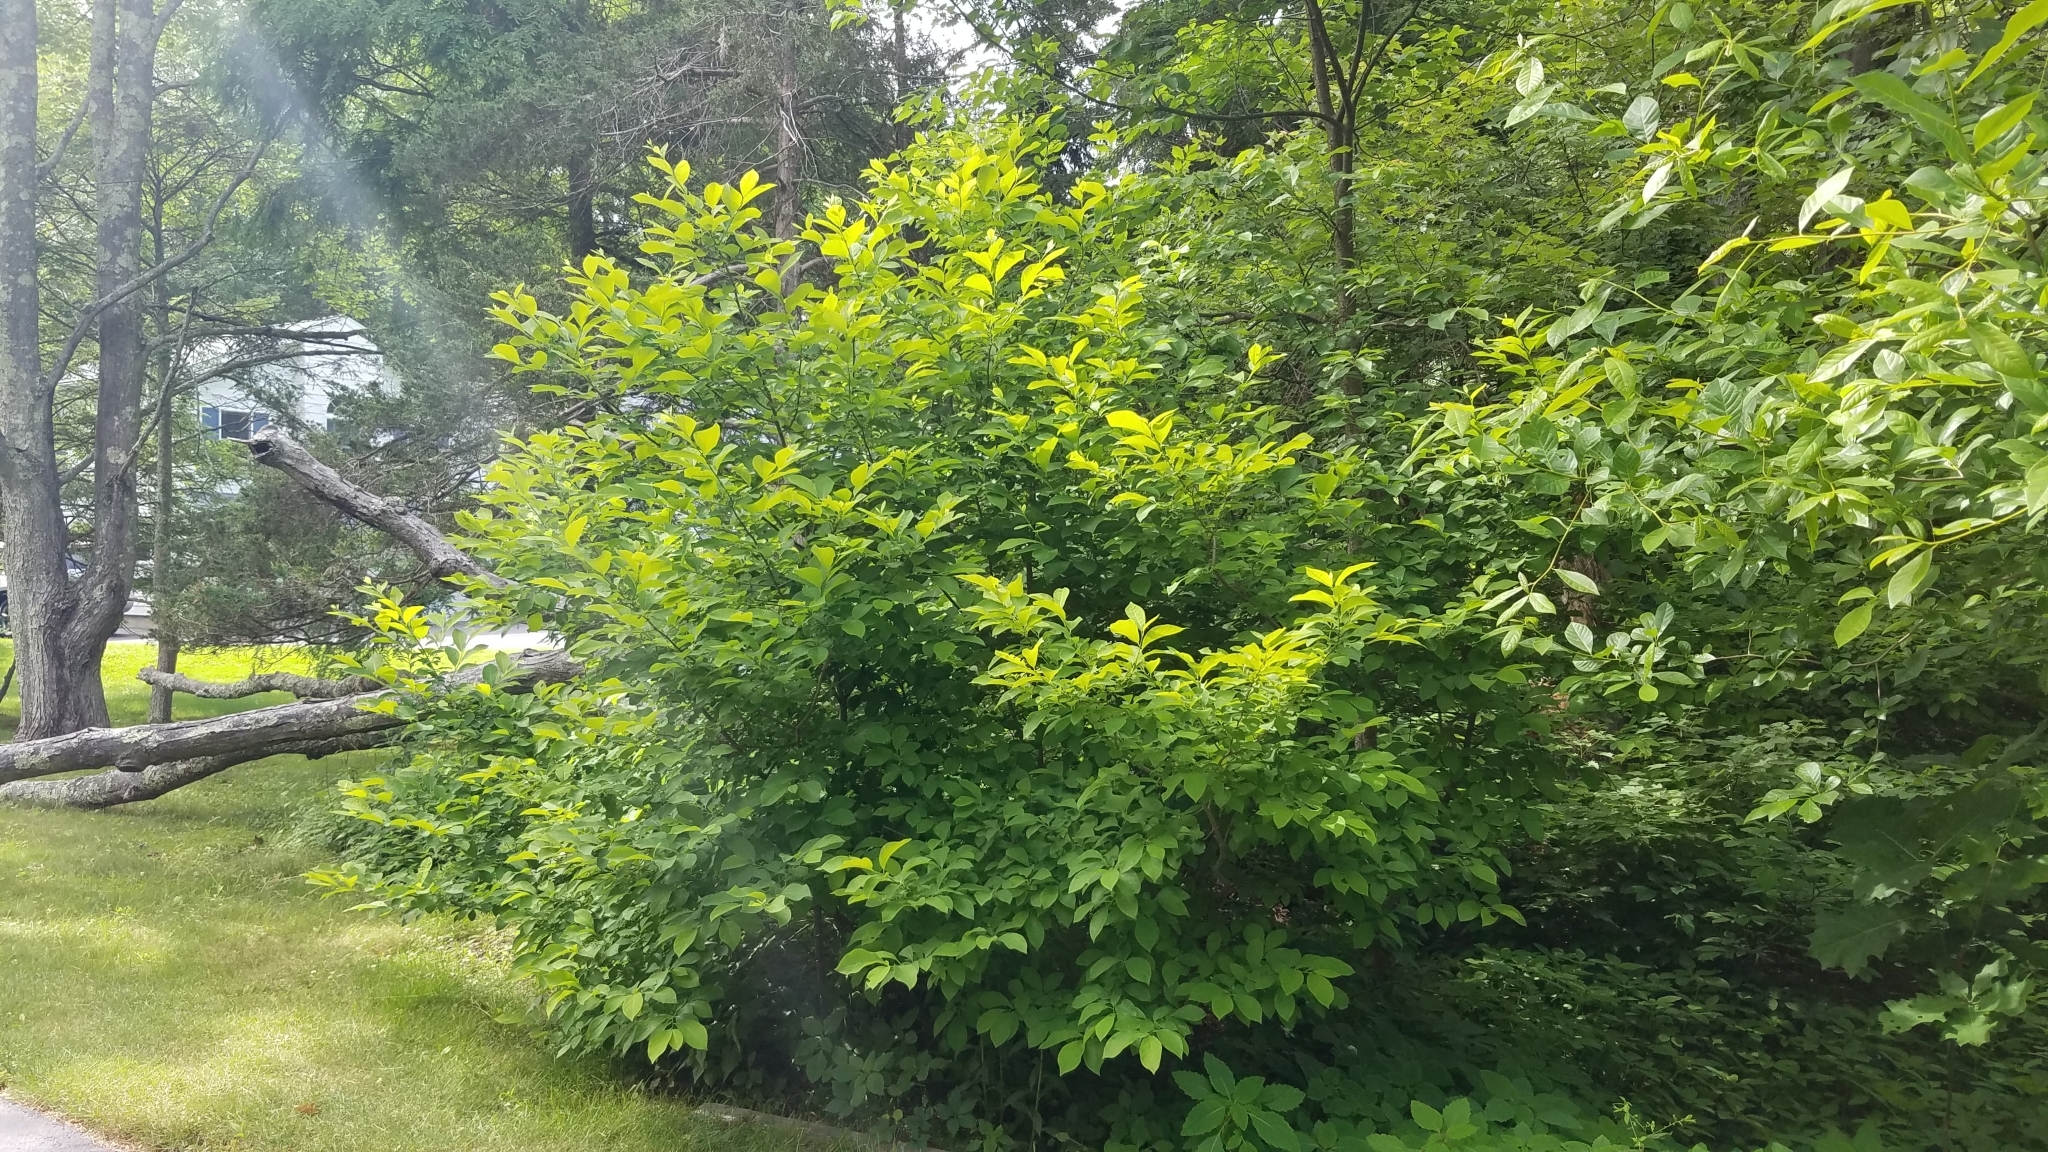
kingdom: Plantae
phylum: Tracheophyta
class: Magnoliopsida
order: Laurales
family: Lauraceae
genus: Lindera
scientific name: Lindera benzoin
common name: Spicebush
